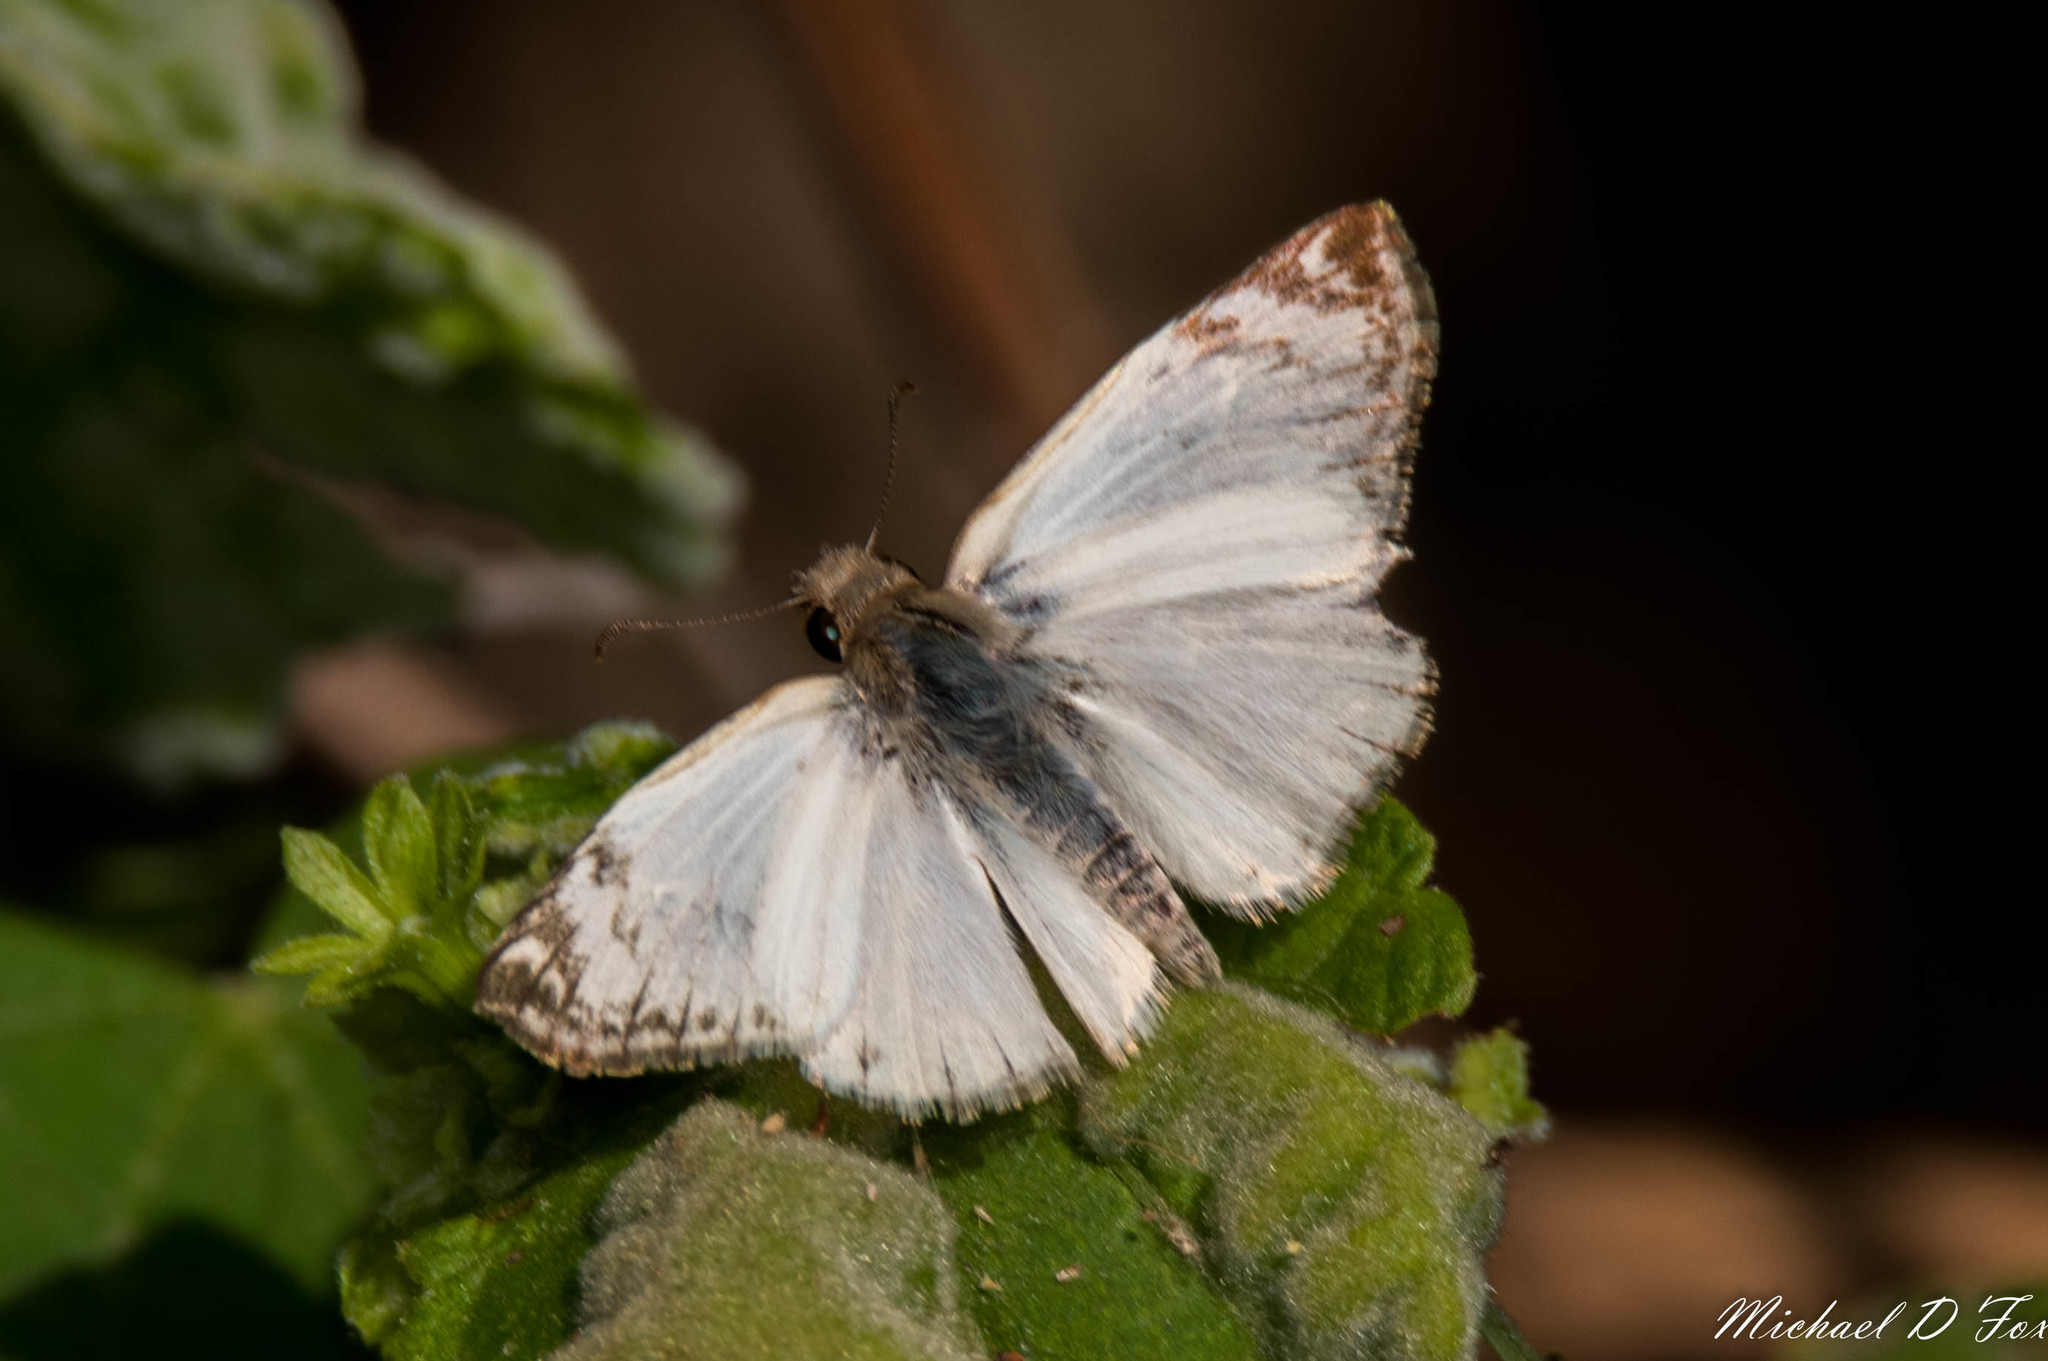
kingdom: Animalia
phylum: Arthropoda
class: Insecta
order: Lepidoptera
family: Hesperiidae
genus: Heliopetes
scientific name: Heliopetes laviana
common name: Laviana white-skipper
